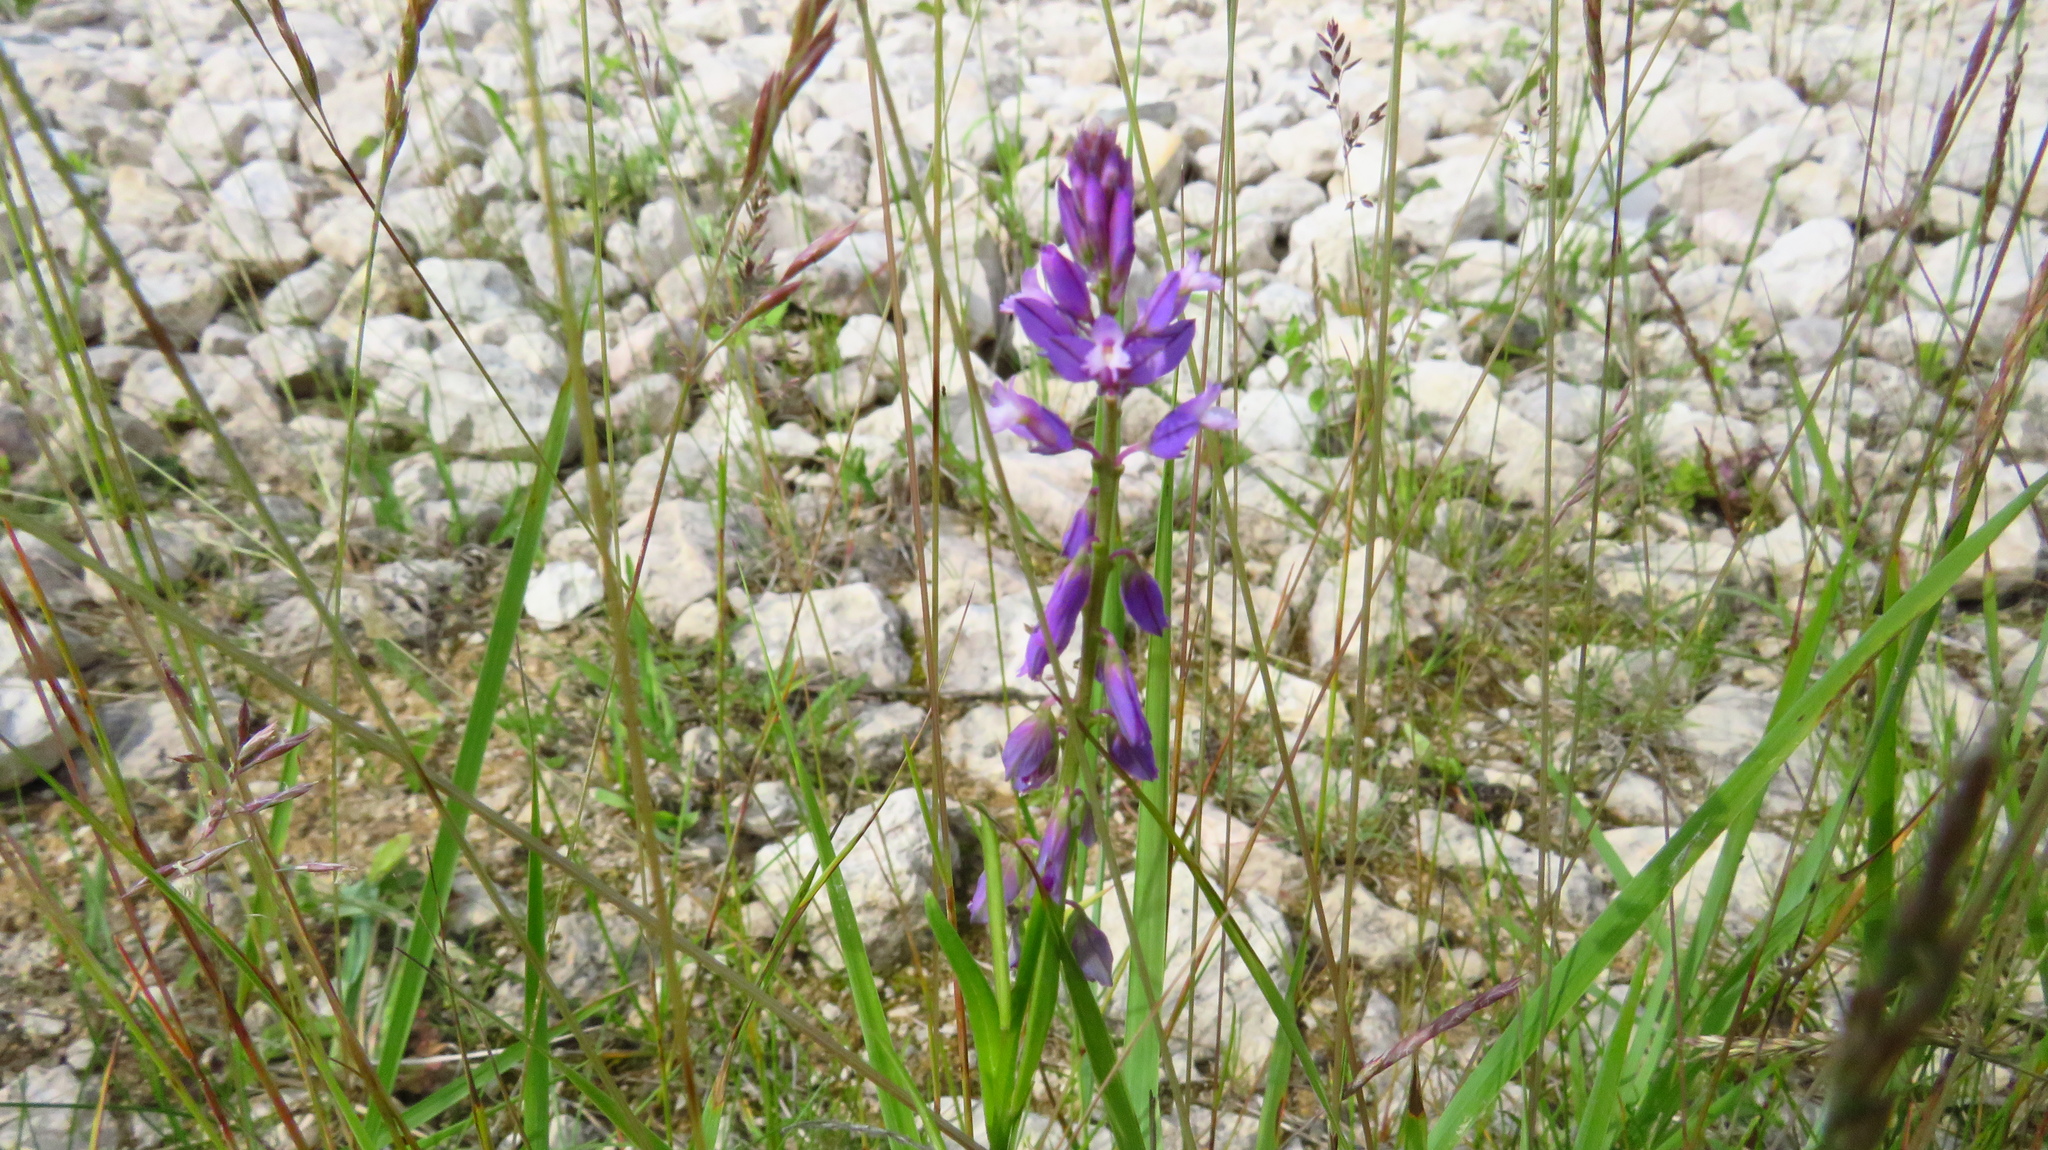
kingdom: Plantae
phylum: Tracheophyta
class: Magnoliopsida
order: Fabales
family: Polygalaceae
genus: Polygala
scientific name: Polygala comosa
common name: Tufted milkwort
